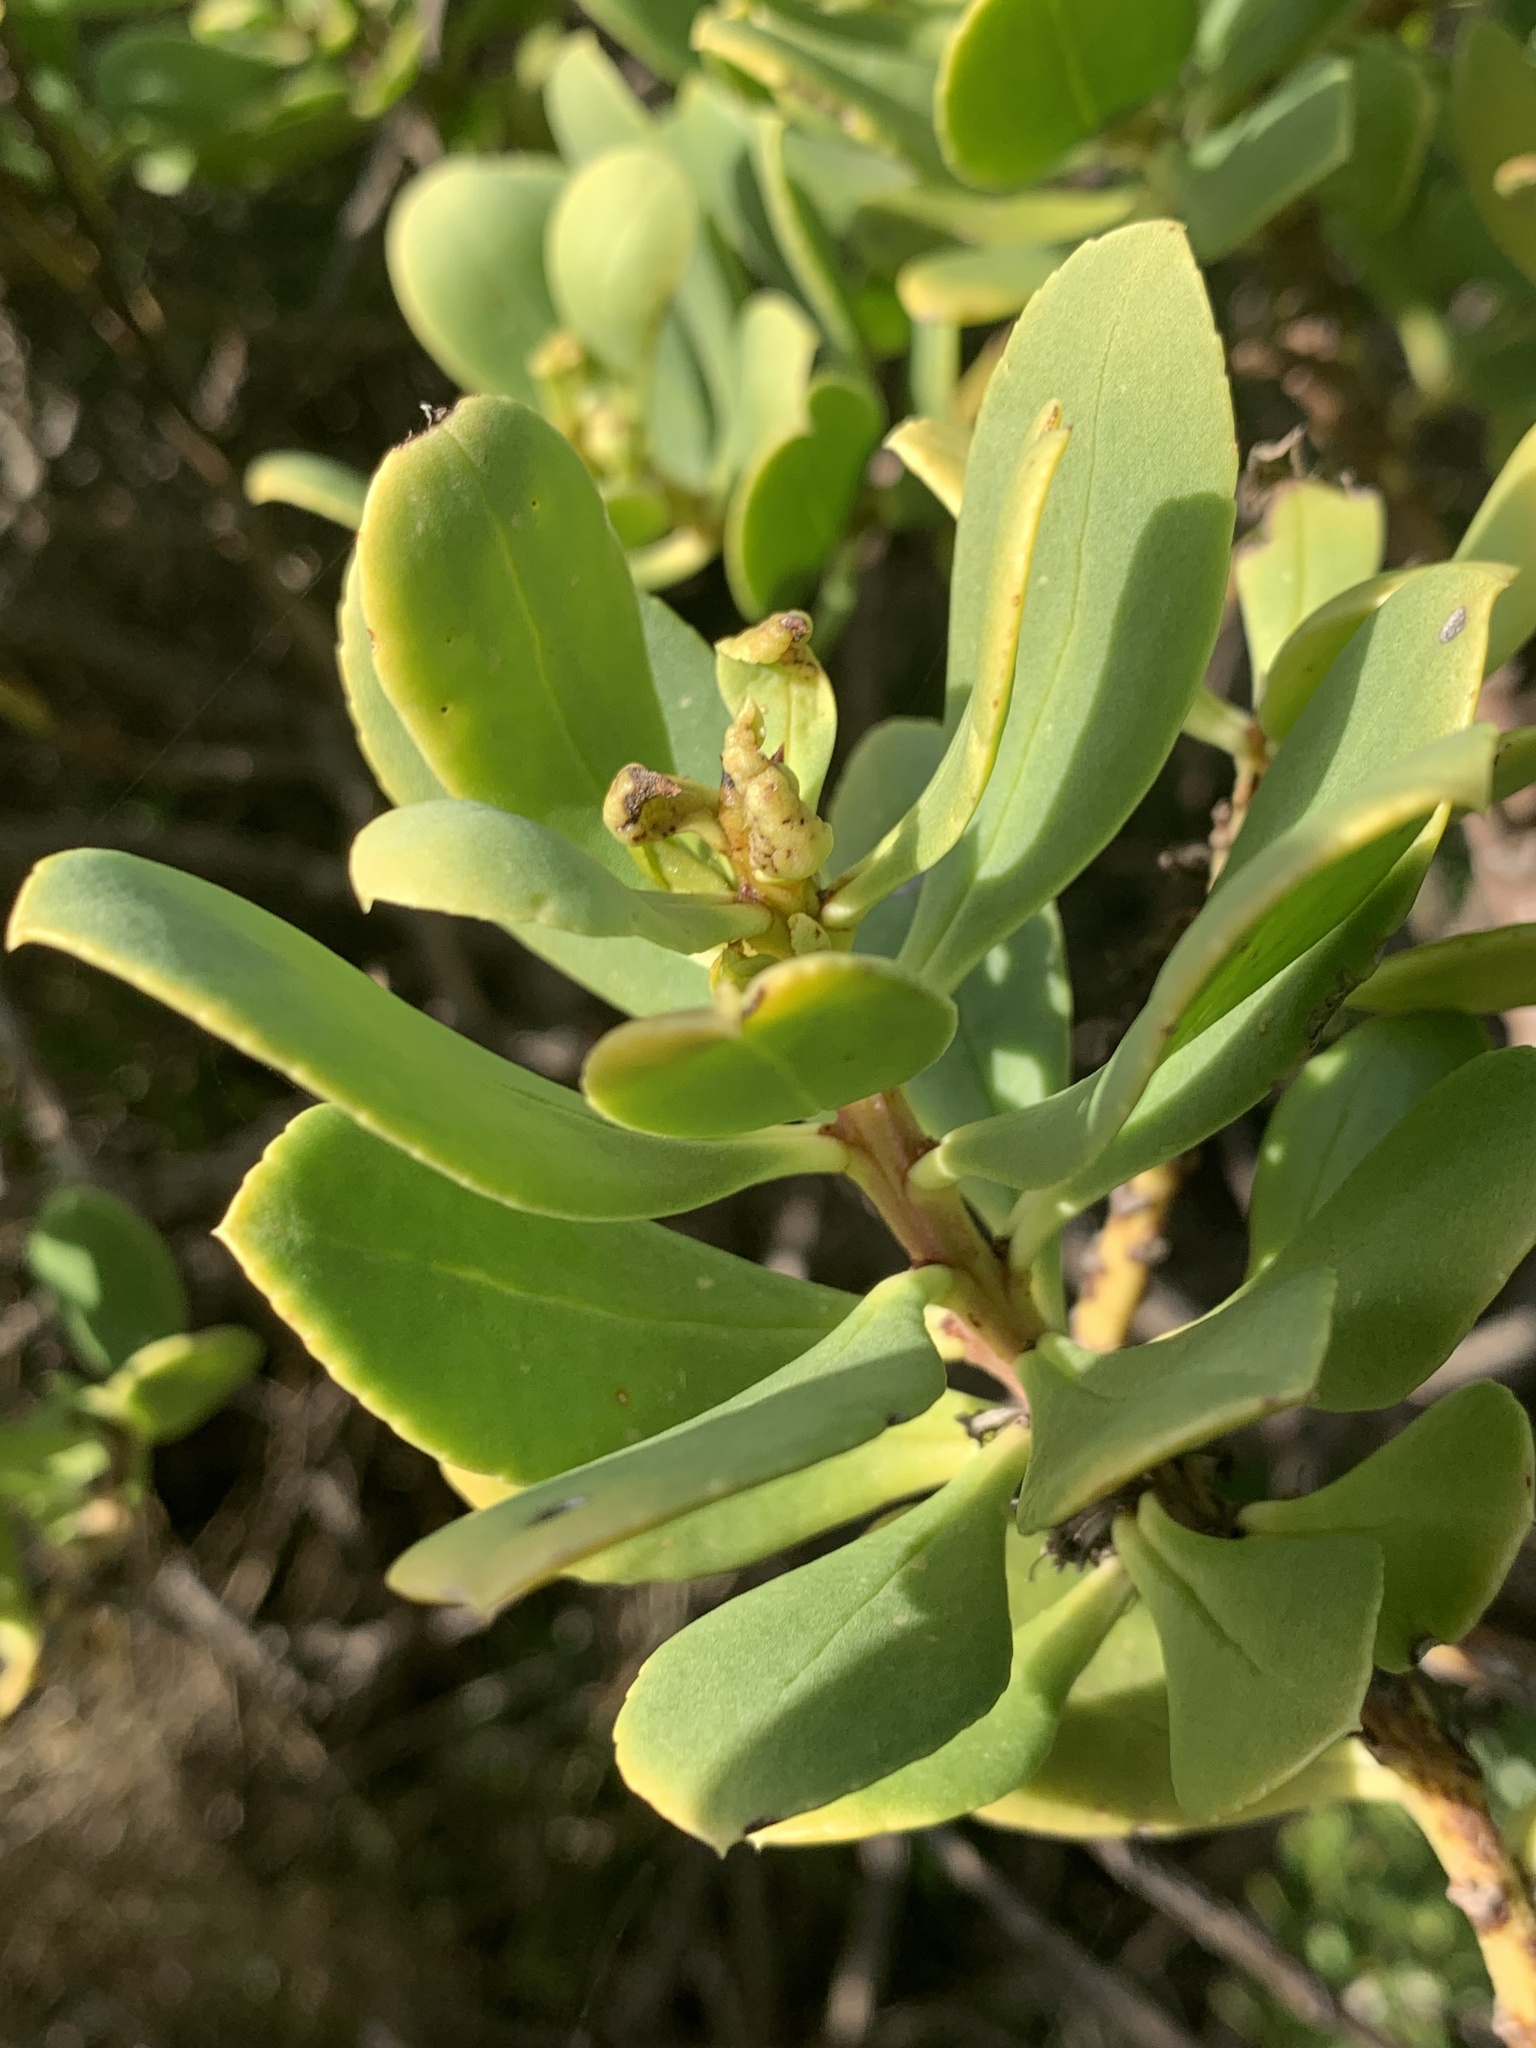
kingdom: Plantae
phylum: Tracheophyta
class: Magnoliopsida
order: Lamiales
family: Scrophulariaceae
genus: Myoporum
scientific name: Myoporum insulare
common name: Common boobialla
